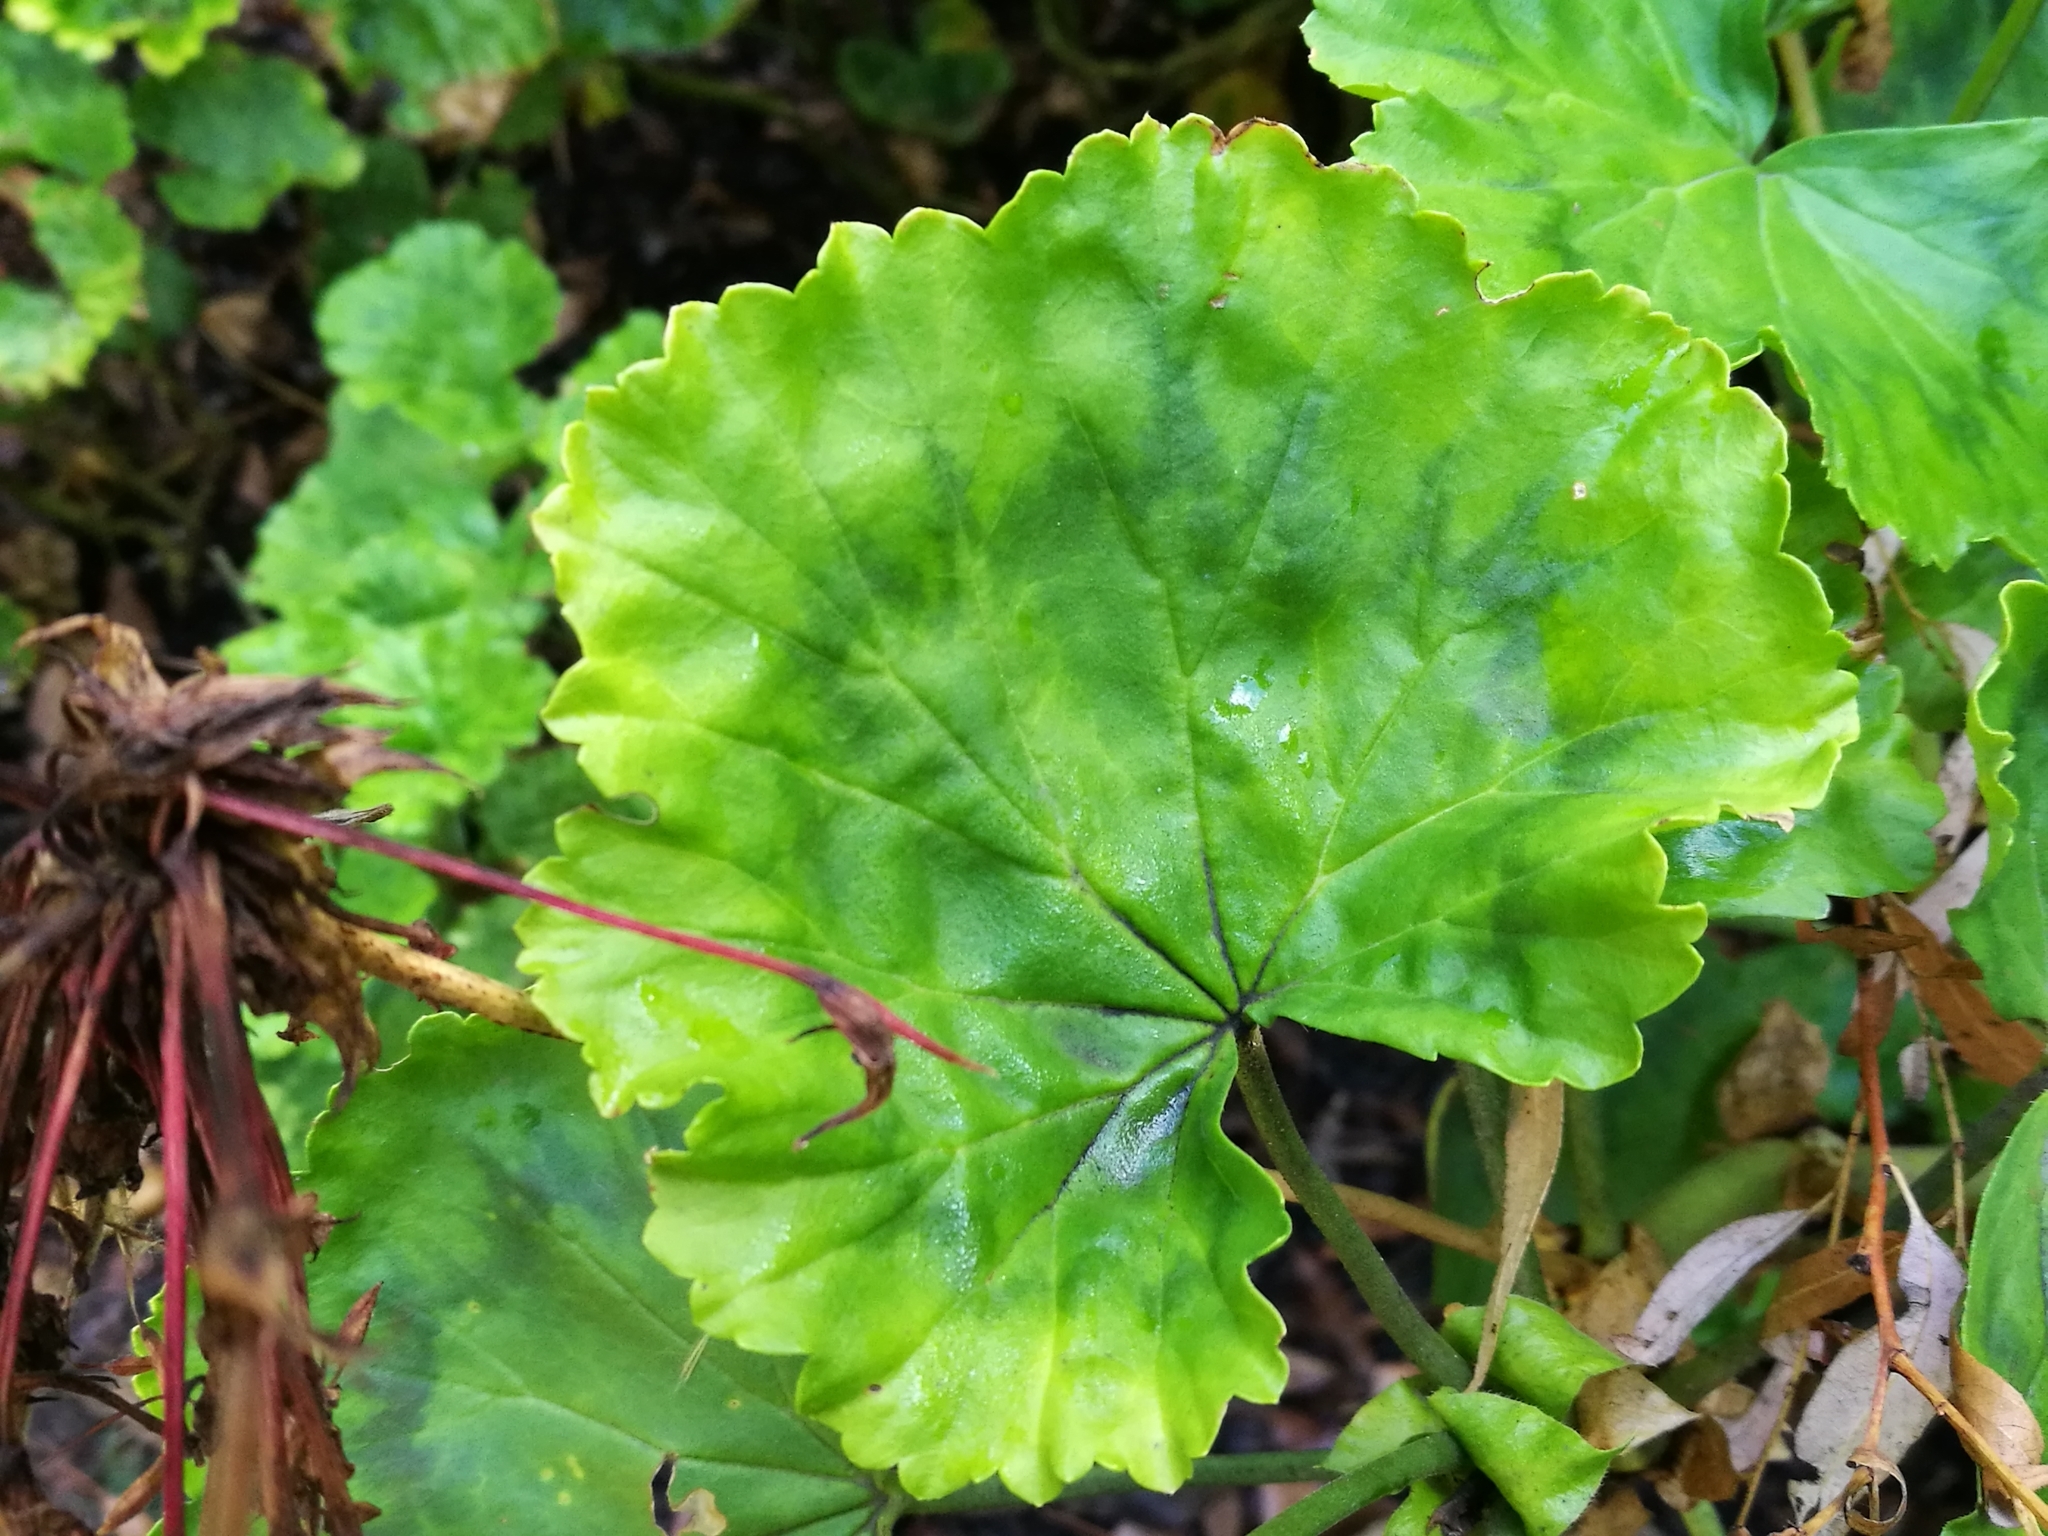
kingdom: Plantae
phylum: Tracheophyta
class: Magnoliopsida
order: Geraniales
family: Geraniaceae
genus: Pelargonium
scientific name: Pelargonium zonale
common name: Horseshoe geranium
